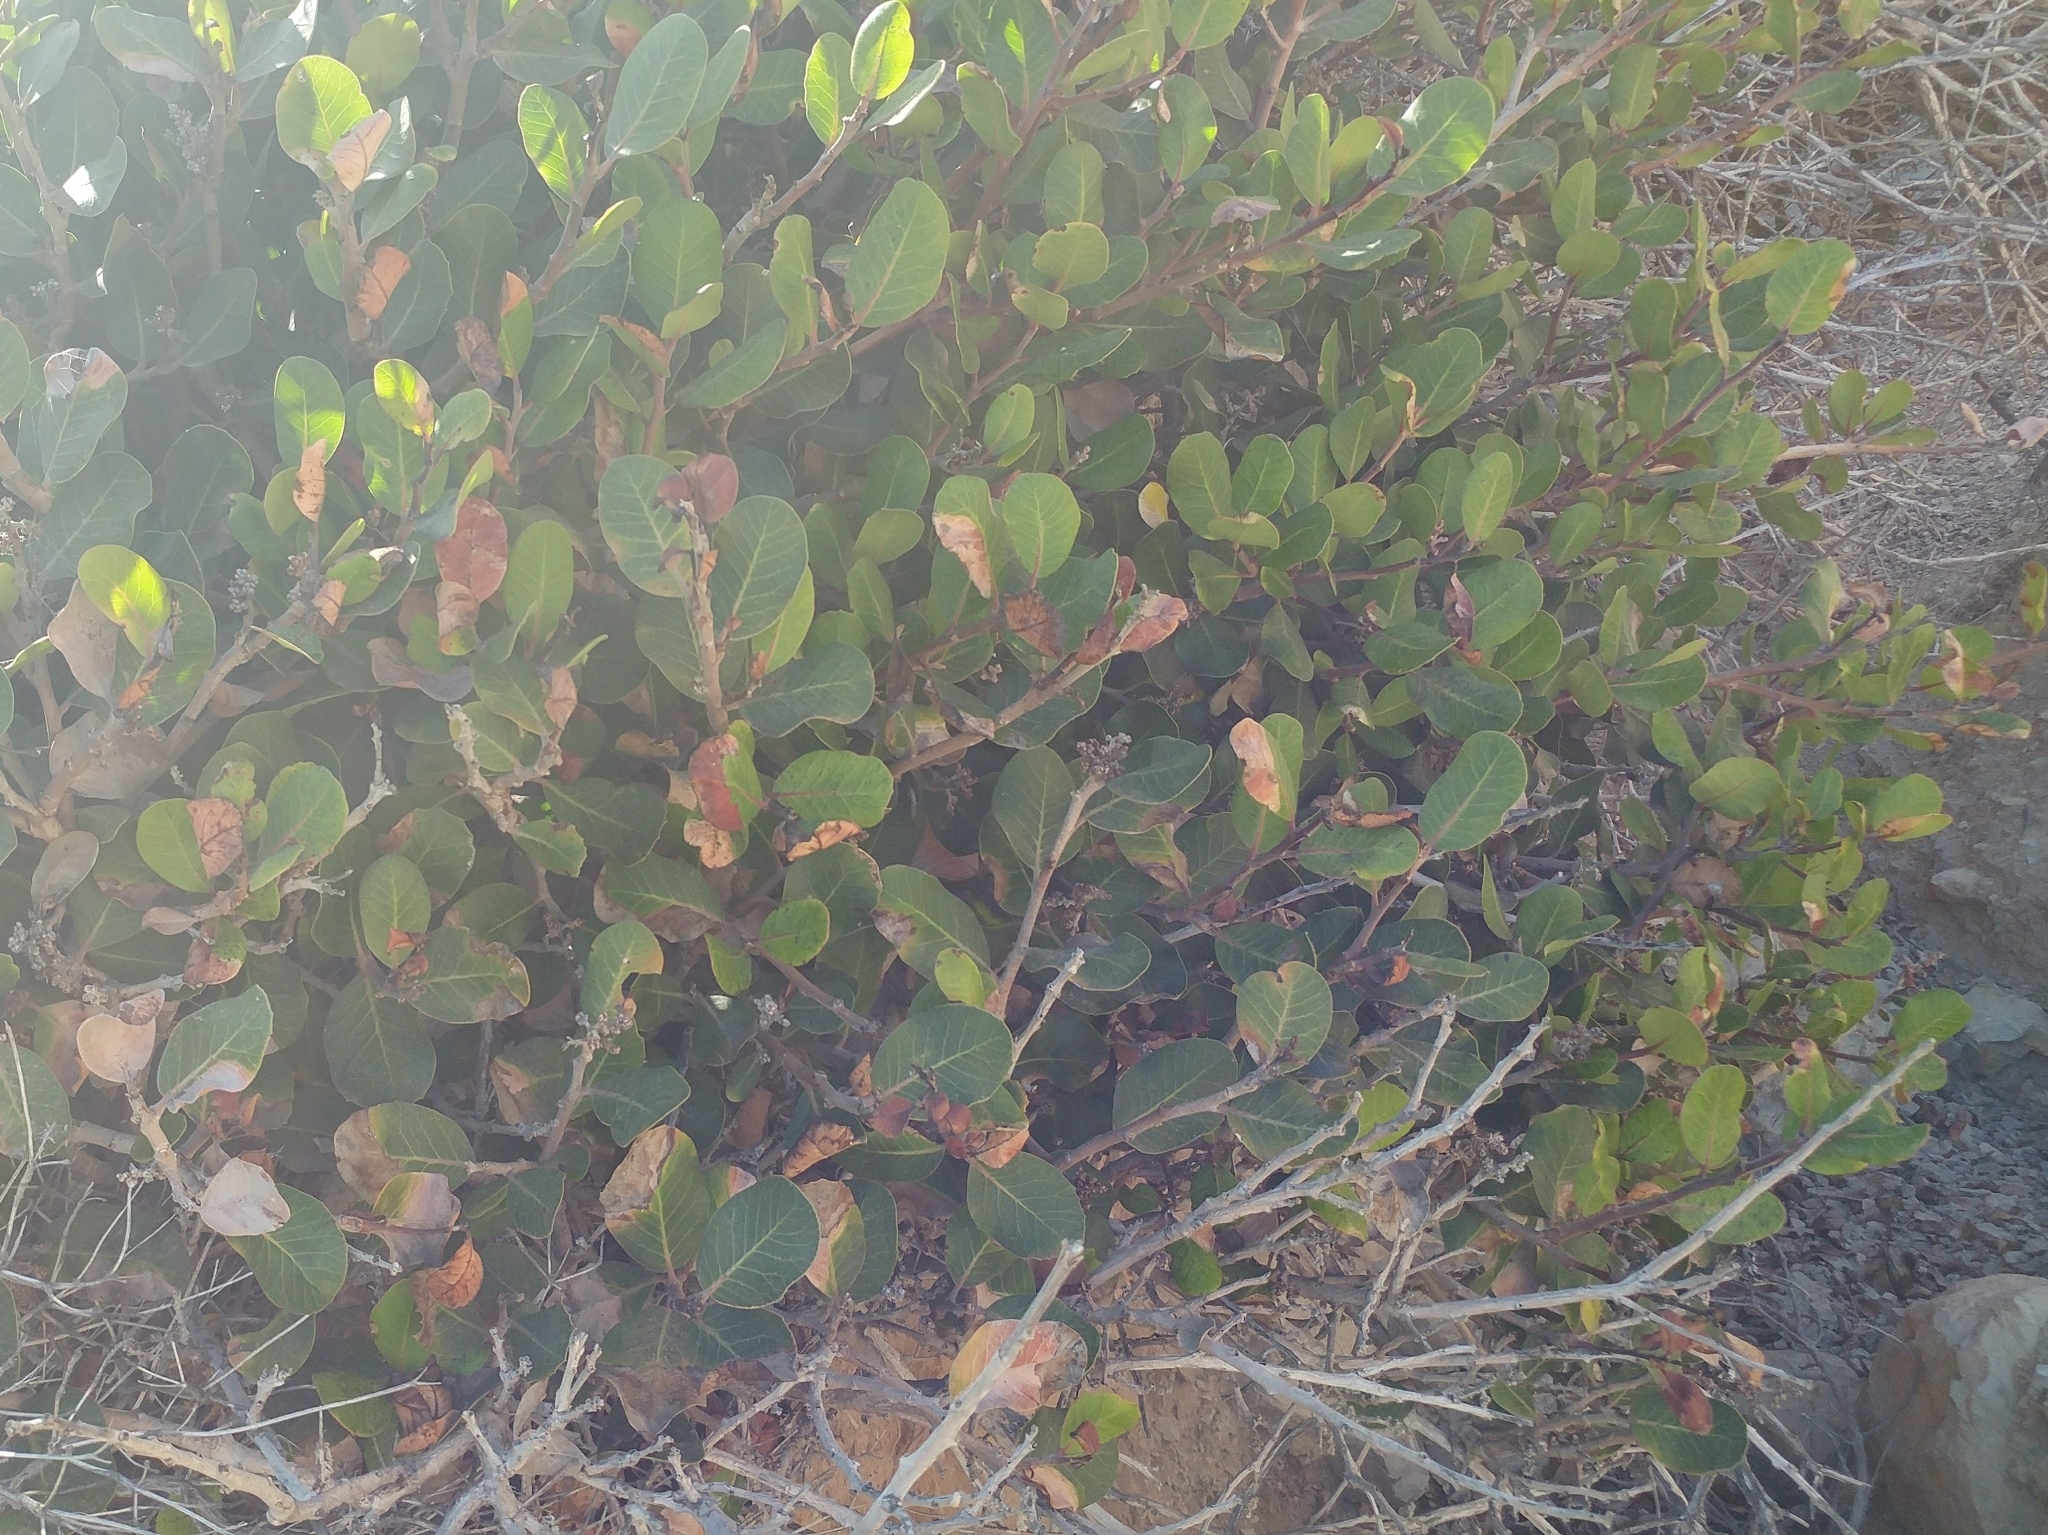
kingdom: Plantae
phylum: Tracheophyta
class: Magnoliopsida
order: Sapindales
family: Anacardiaceae
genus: Rhus
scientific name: Rhus integrifolia
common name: Lemonade sumac
